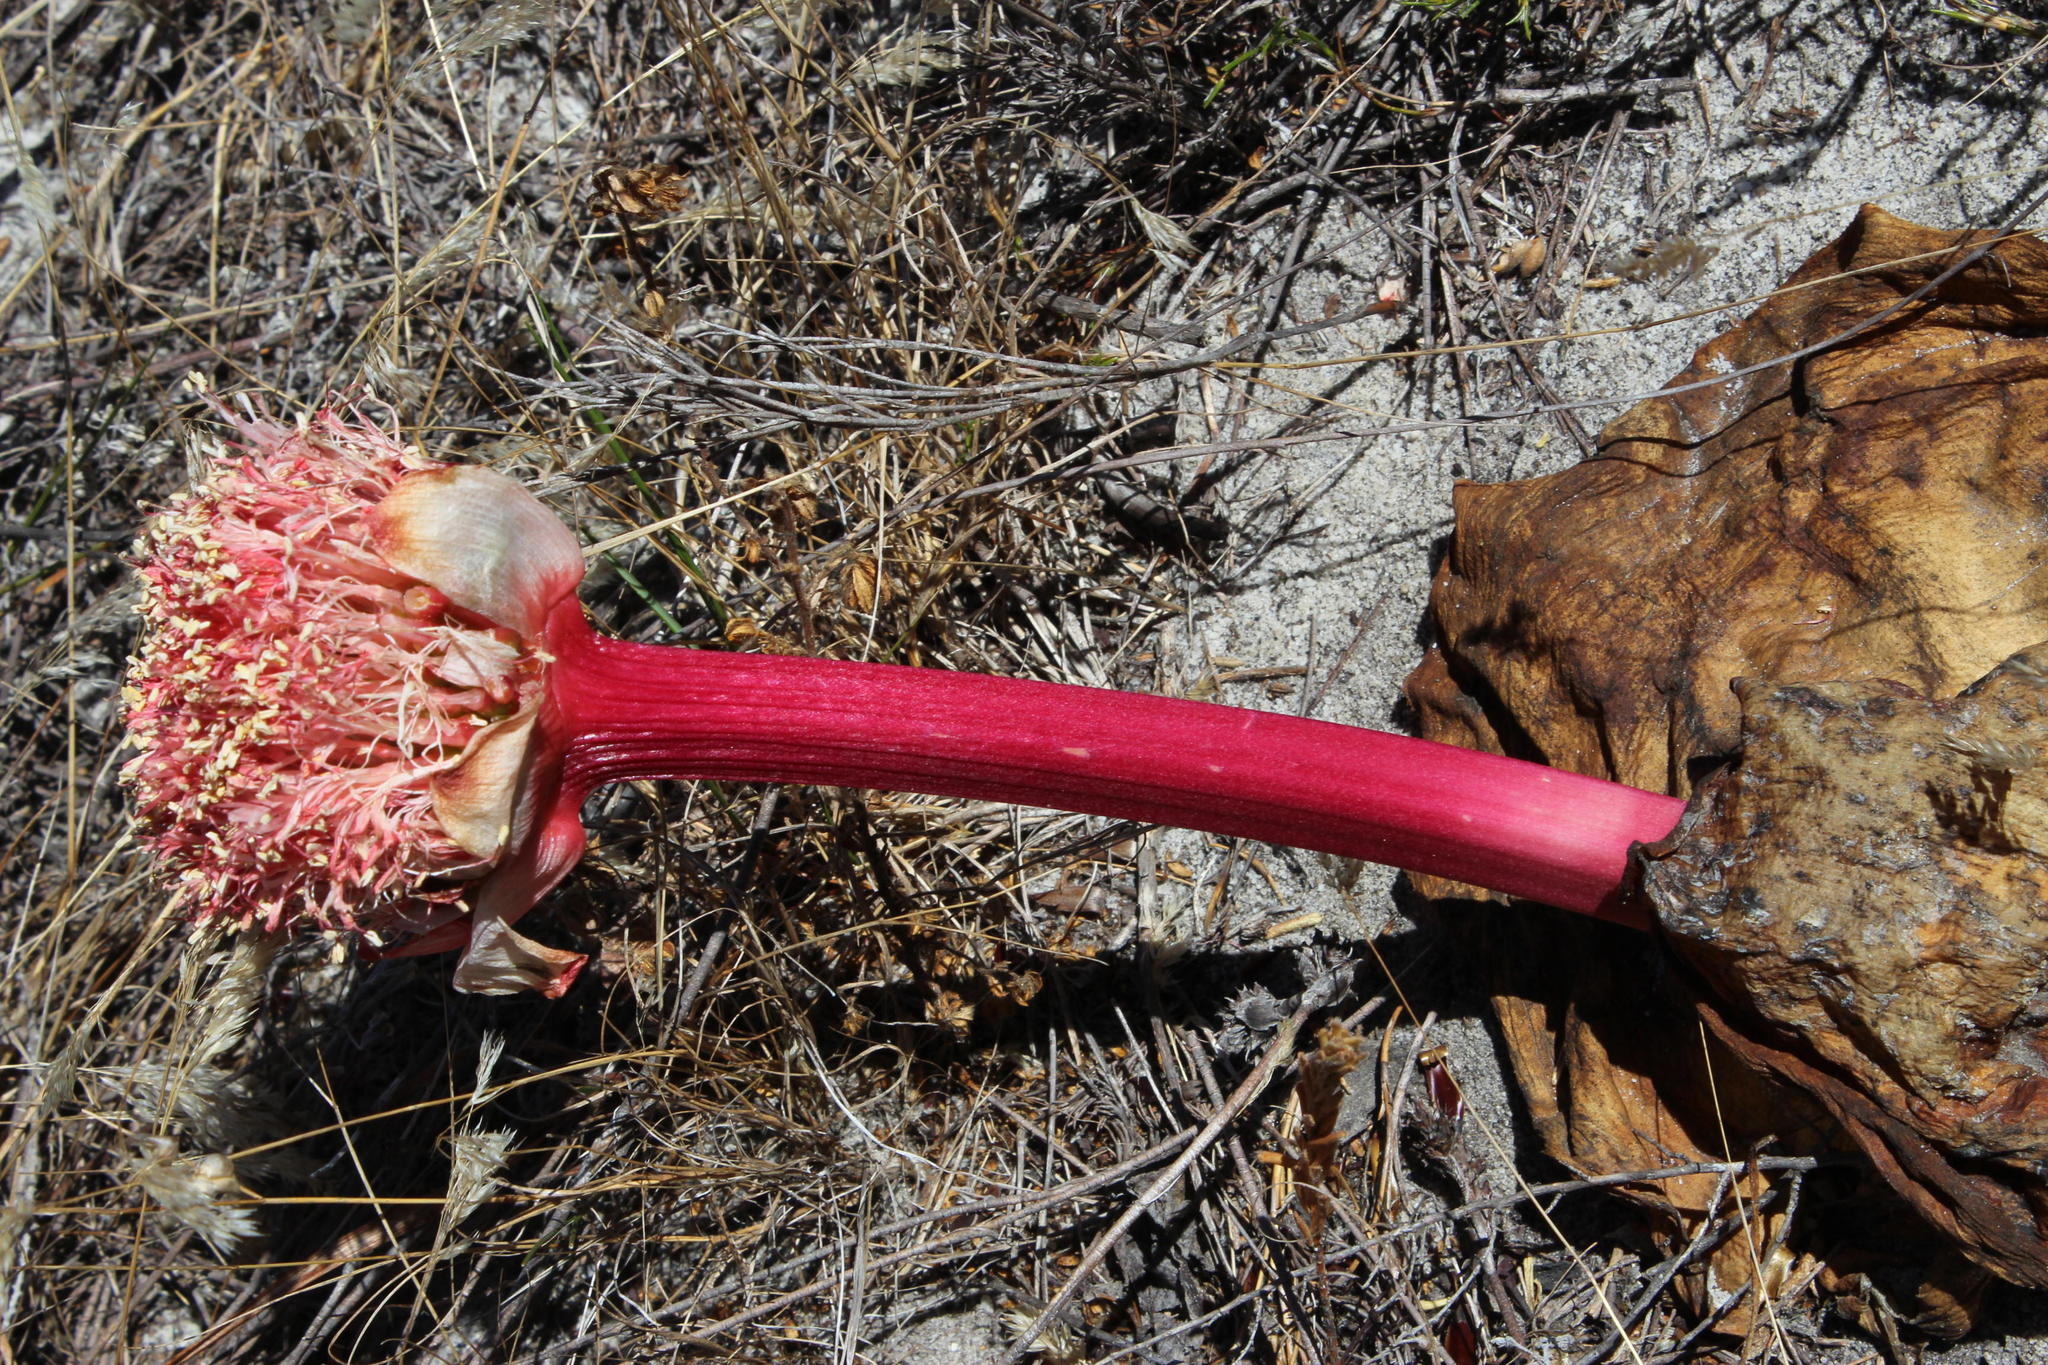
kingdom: Plantae
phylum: Tracheophyta
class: Liliopsida
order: Asparagales
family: Amaryllidaceae
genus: Haemanthus
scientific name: Haemanthus sanguineus
